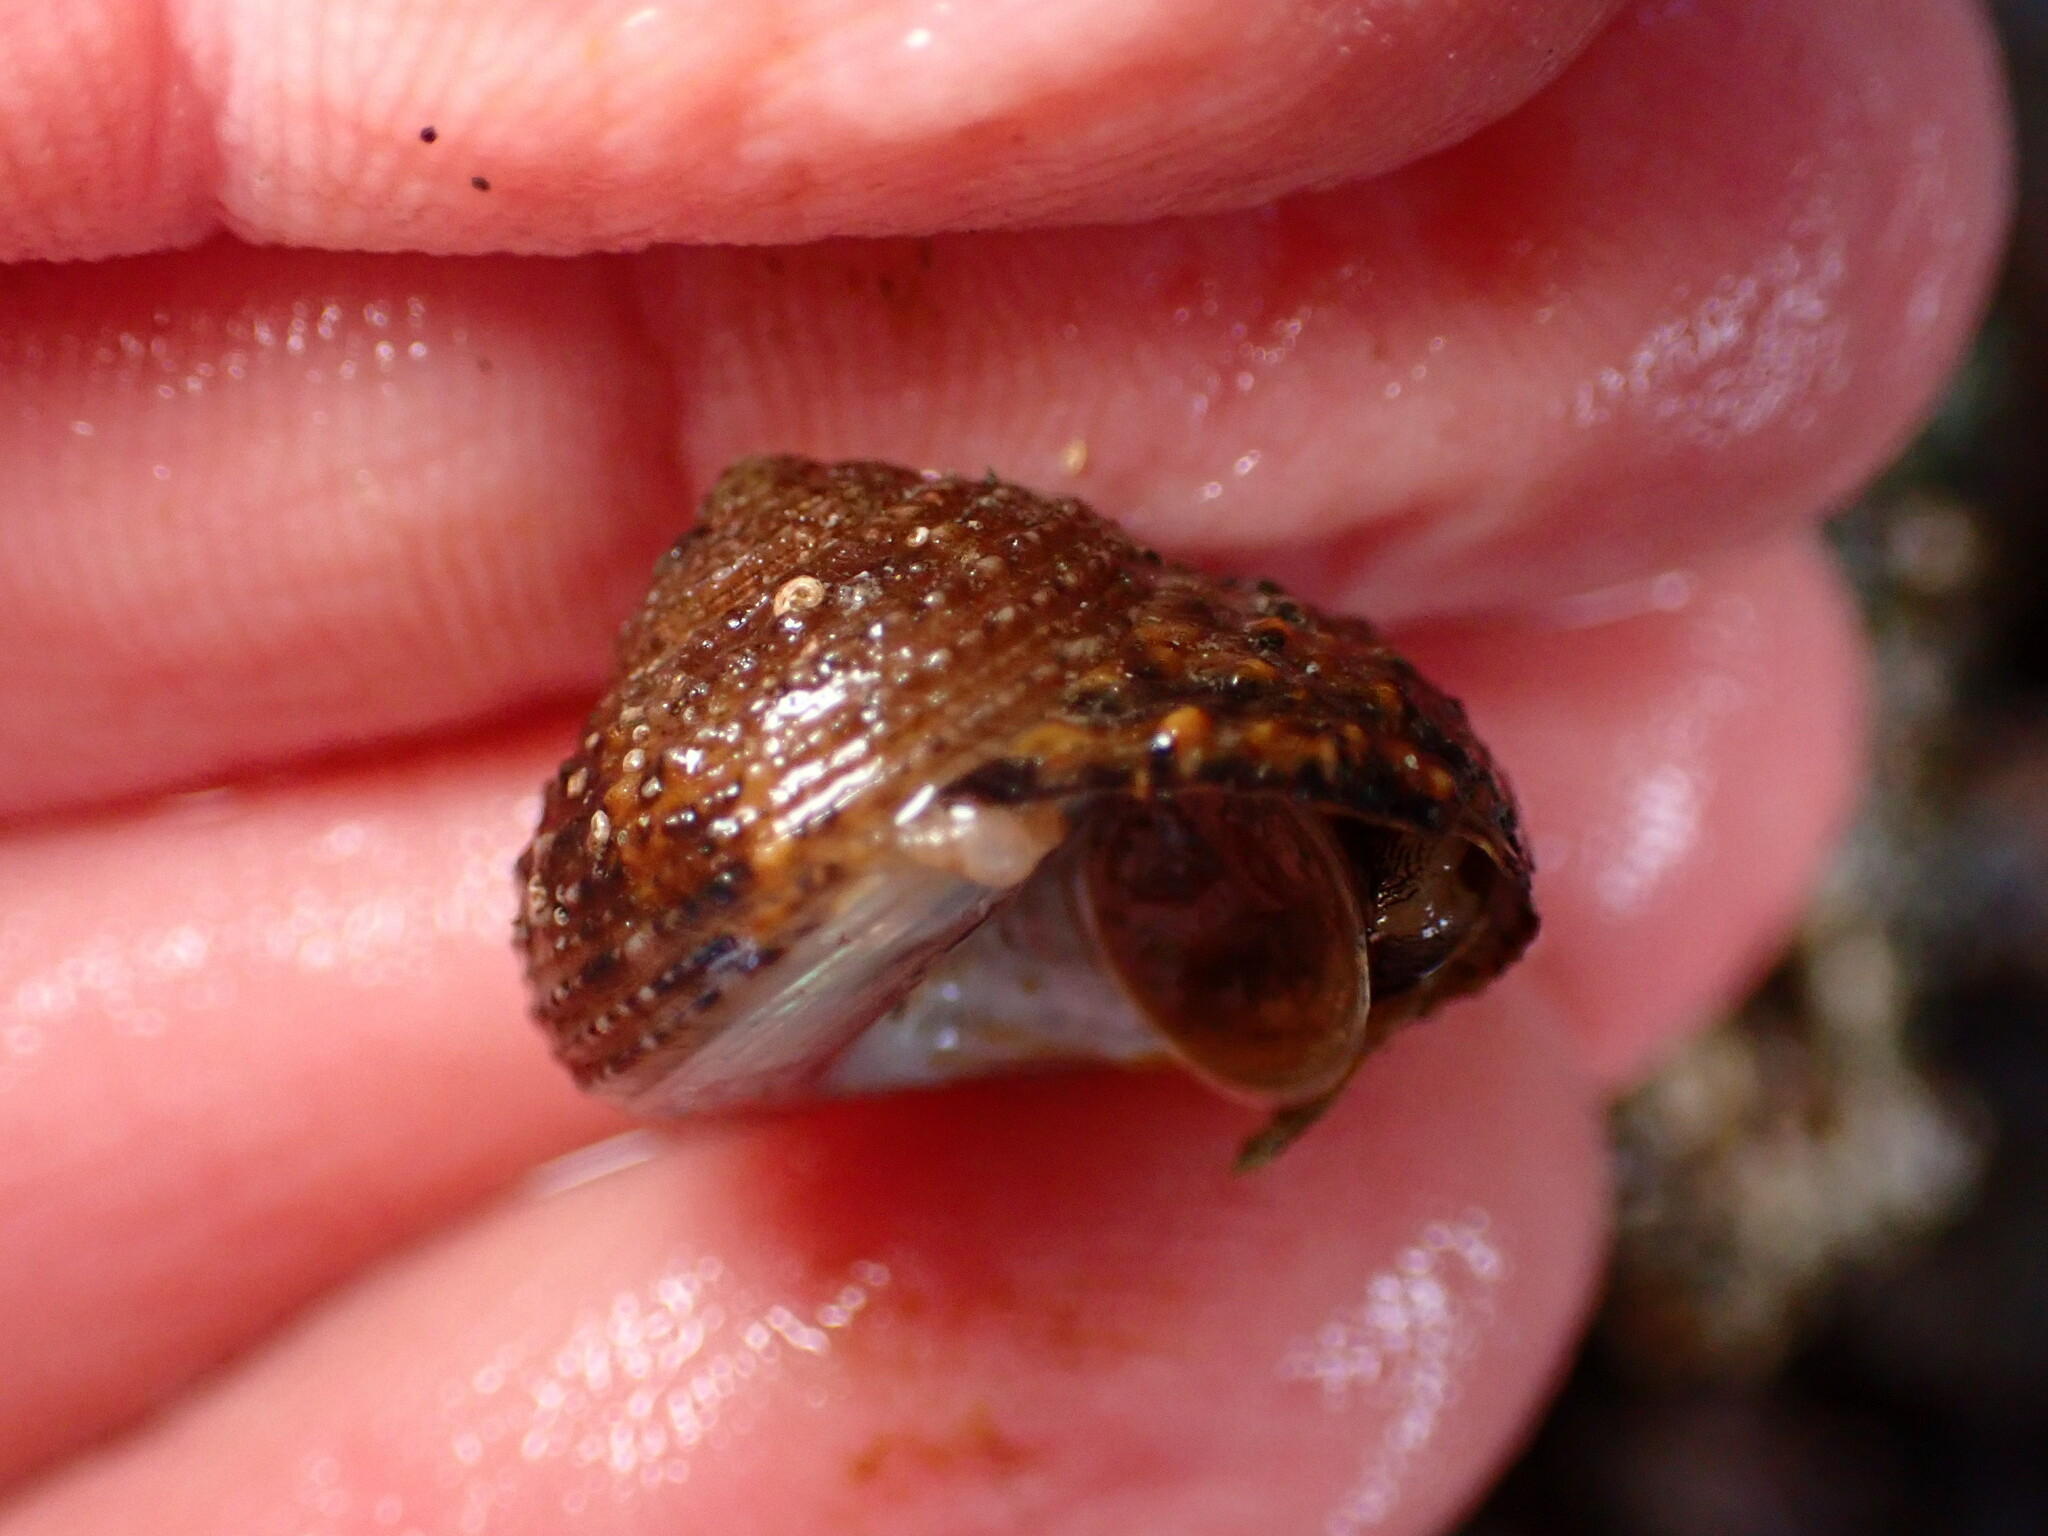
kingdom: Animalia
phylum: Mollusca
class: Gastropoda
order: Trochida
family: Tegulidae
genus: Tegula
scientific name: Tegula eiseni
